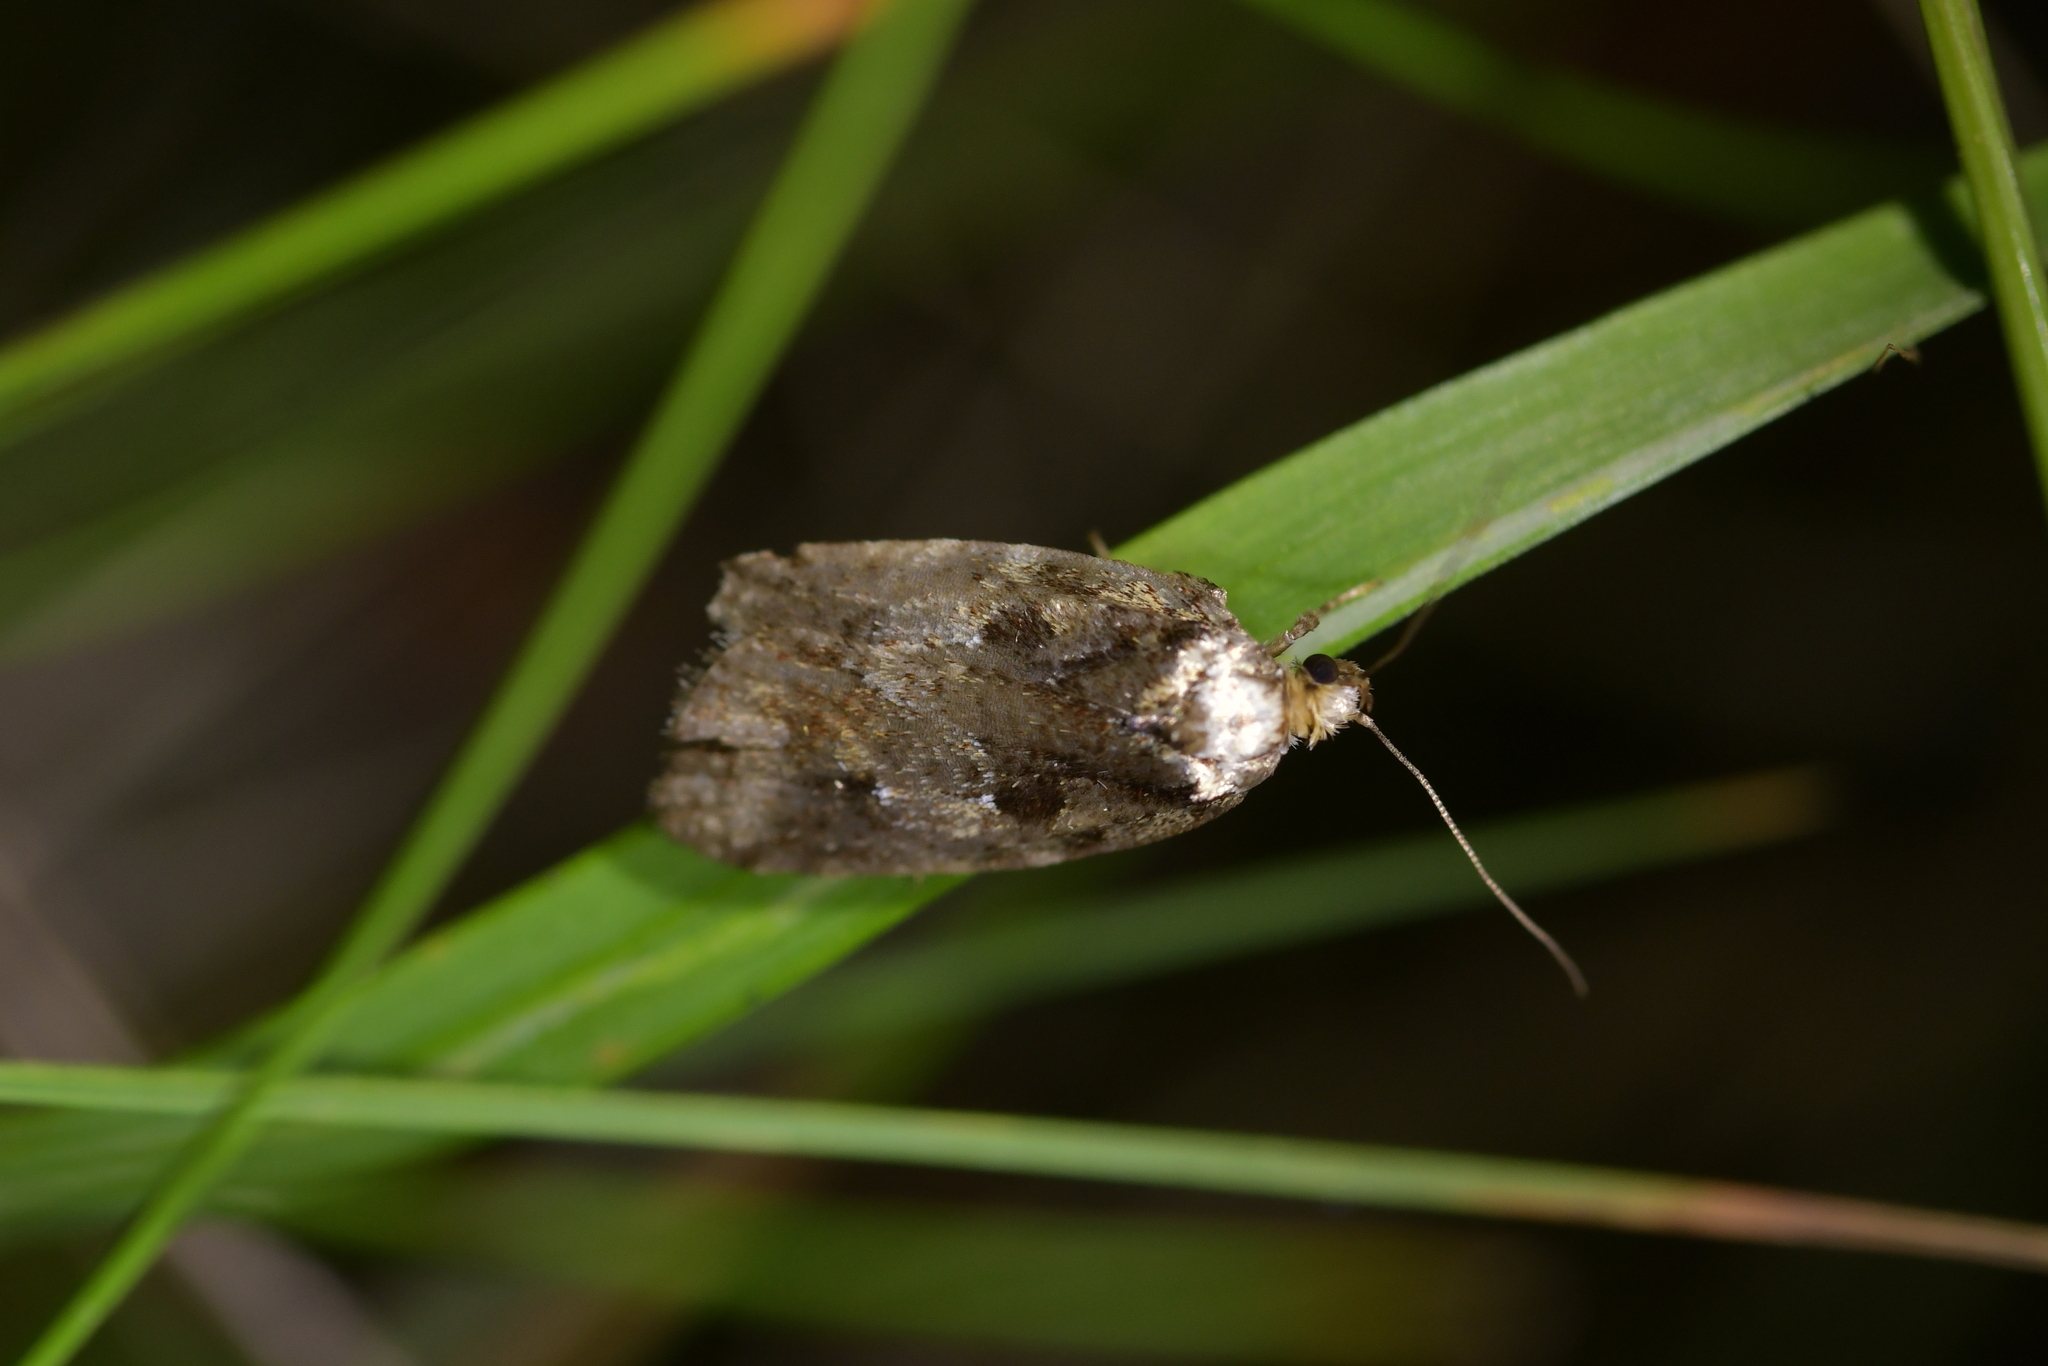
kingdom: Animalia
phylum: Arthropoda
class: Insecta
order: Lepidoptera
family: Oecophoridae
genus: Proteodes
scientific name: Proteodes profunda
